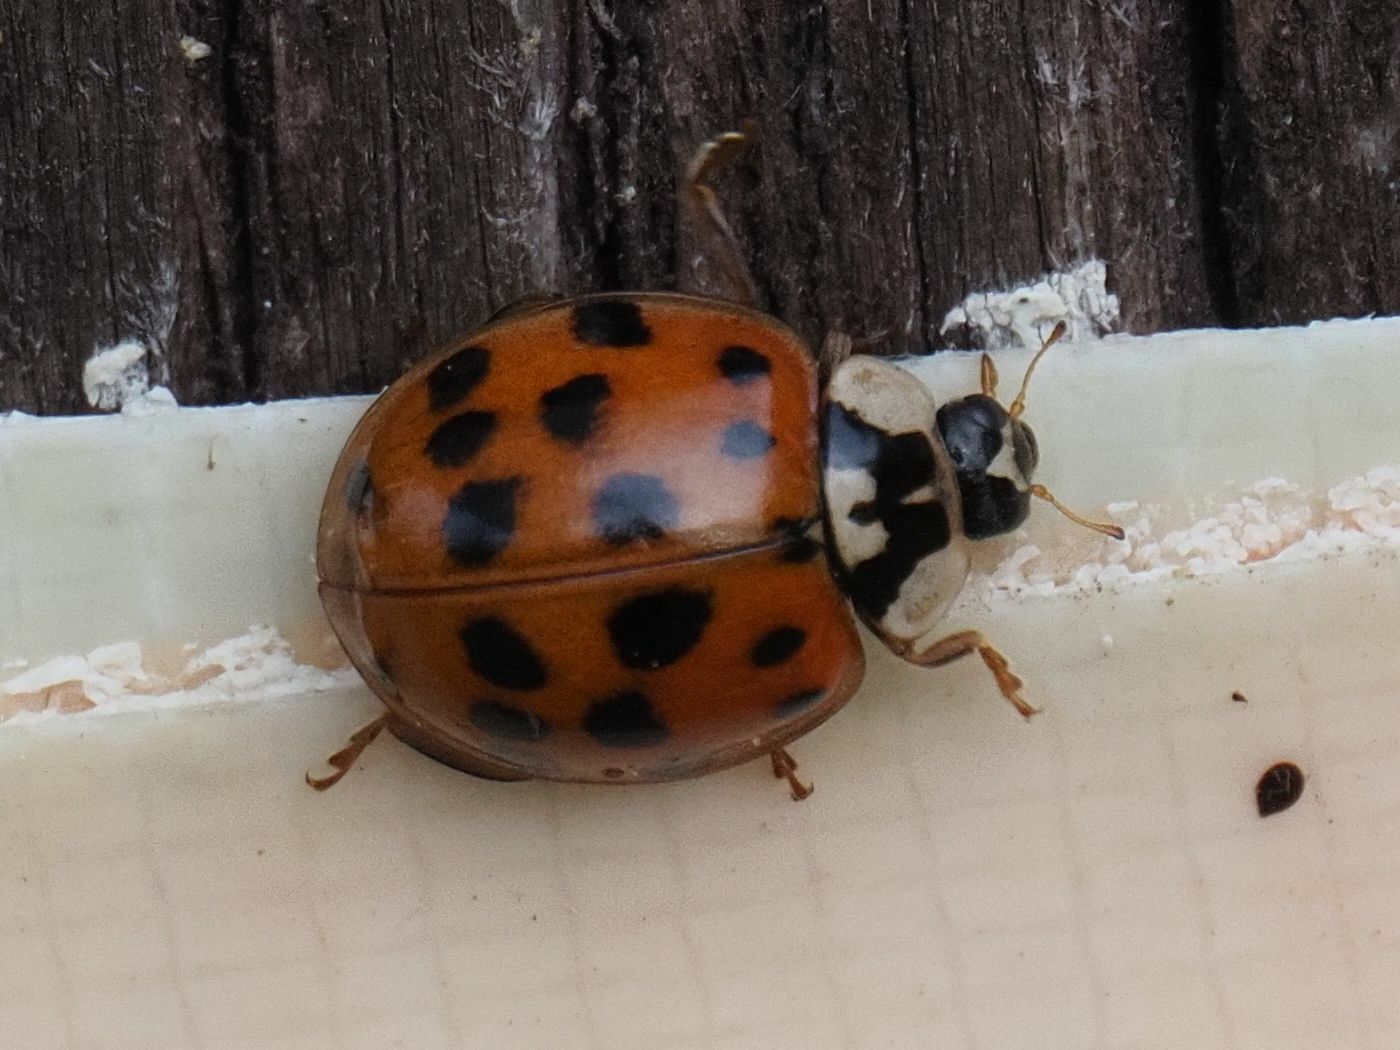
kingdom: Animalia
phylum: Arthropoda
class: Insecta
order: Coleoptera
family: Coccinellidae
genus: Harmonia
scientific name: Harmonia axyridis
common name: Harlequin ladybird
